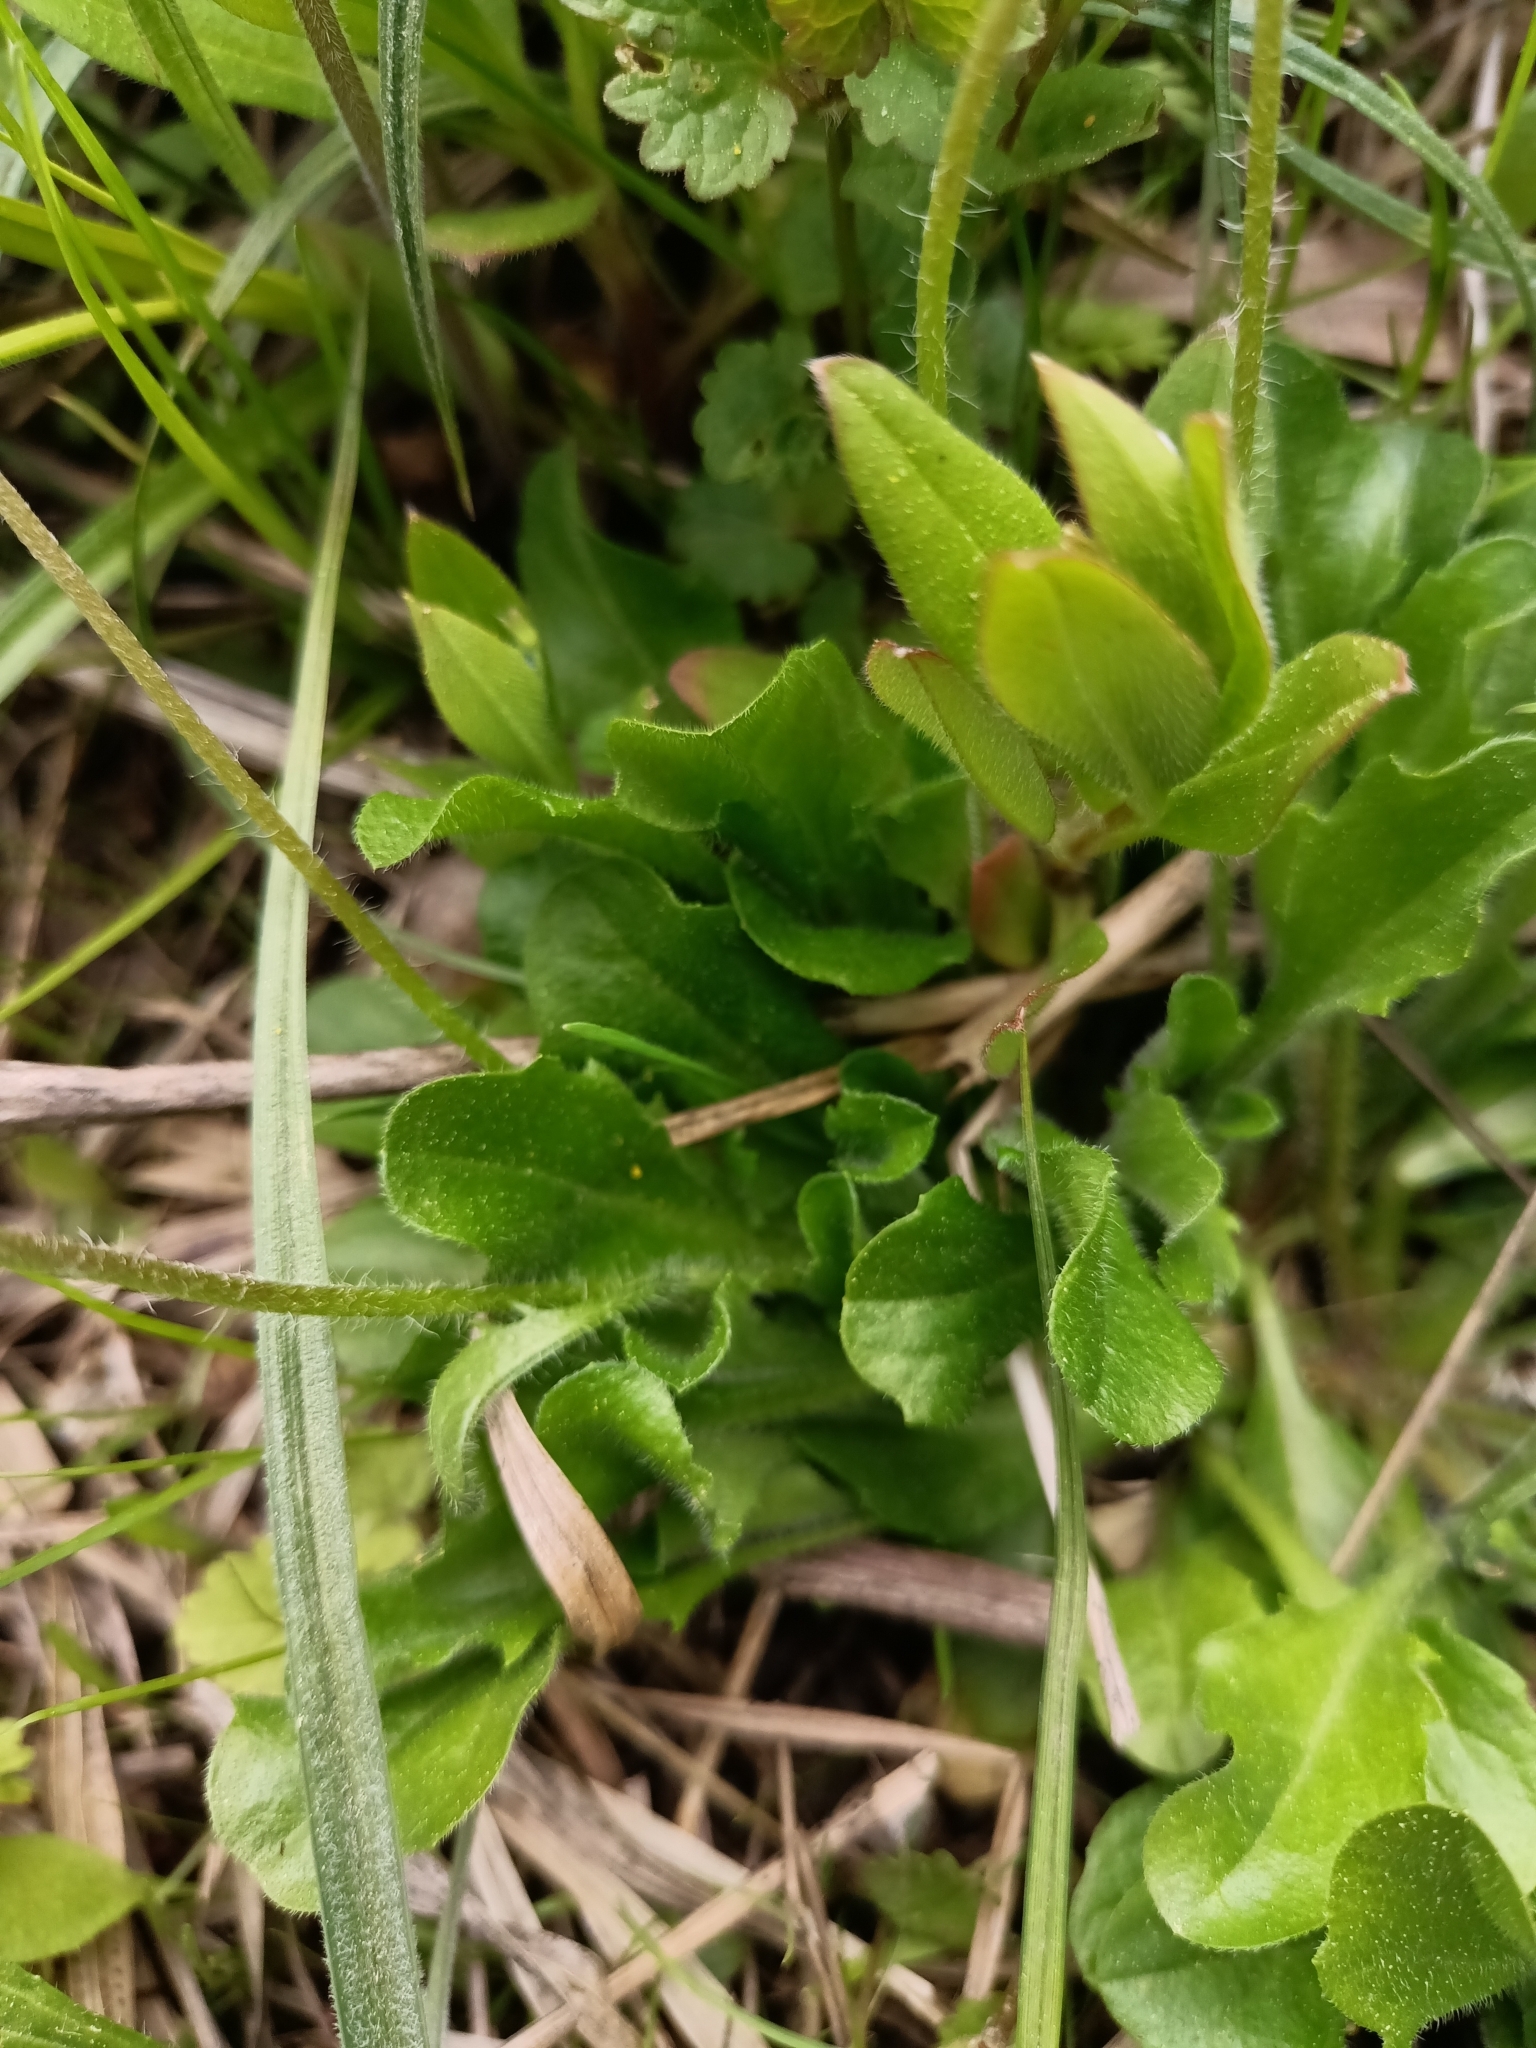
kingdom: Plantae
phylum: Tracheophyta
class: Magnoliopsida
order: Asterales
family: Asteraceae
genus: Bellis
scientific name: Bellis perennis
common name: Lawndaisy
